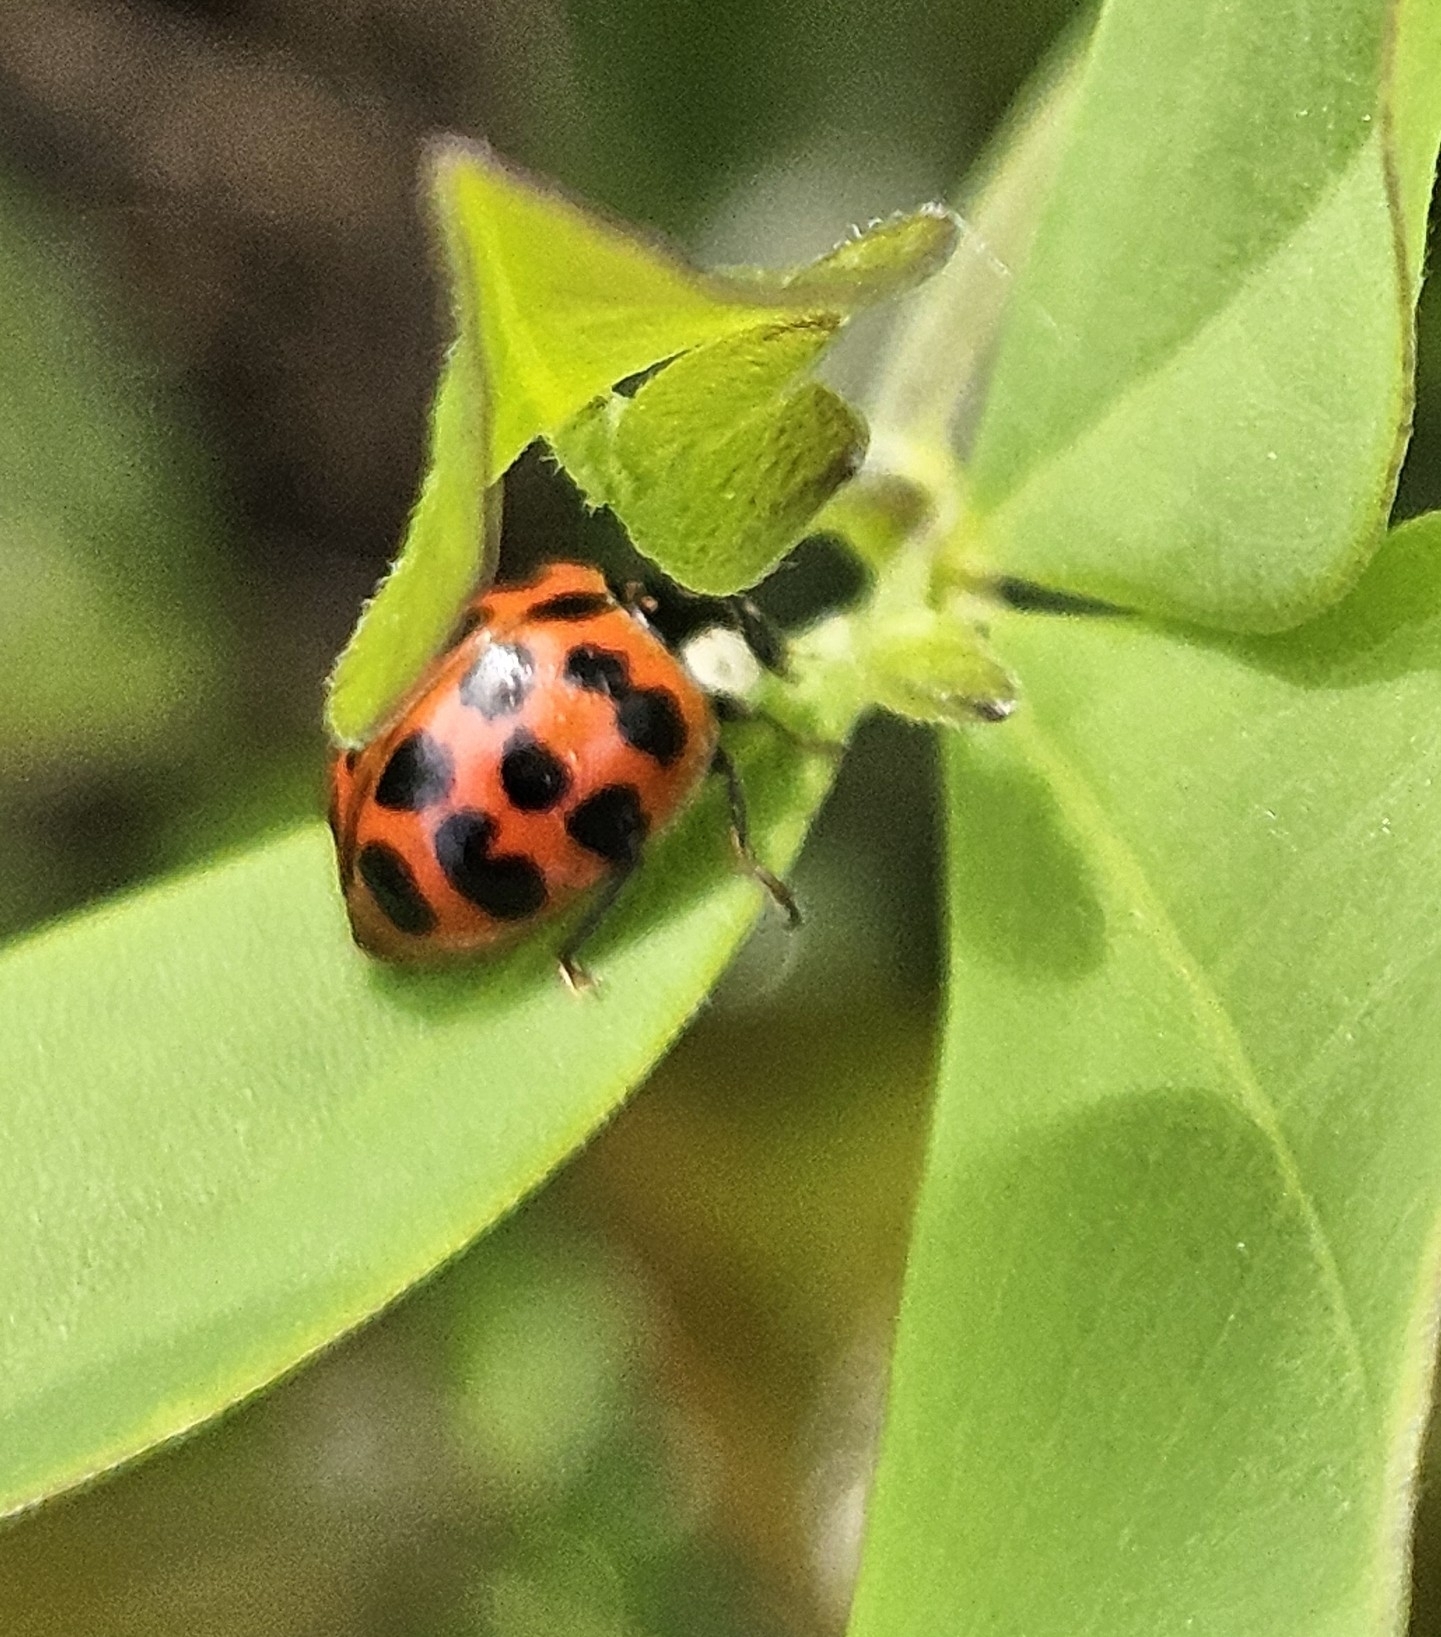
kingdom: Animalia
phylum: Arthropoda
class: Insecta
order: Coleoptera
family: Coccinellidae
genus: Harmonia
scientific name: Harmonia axyridis
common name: Harlequin ladybird
